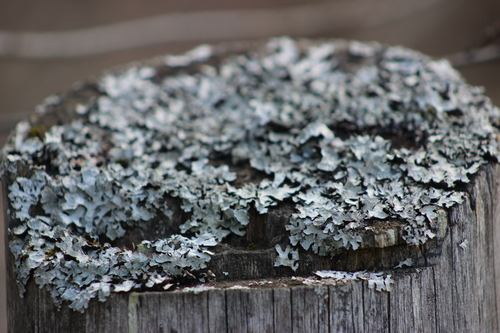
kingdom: Fungi
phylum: Ascomycota
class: Lecanoromycetes
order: Lecanorales
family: Parmeliaceae
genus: Parmelia
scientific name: Parmelia sulcata
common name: Netted shield lichen
